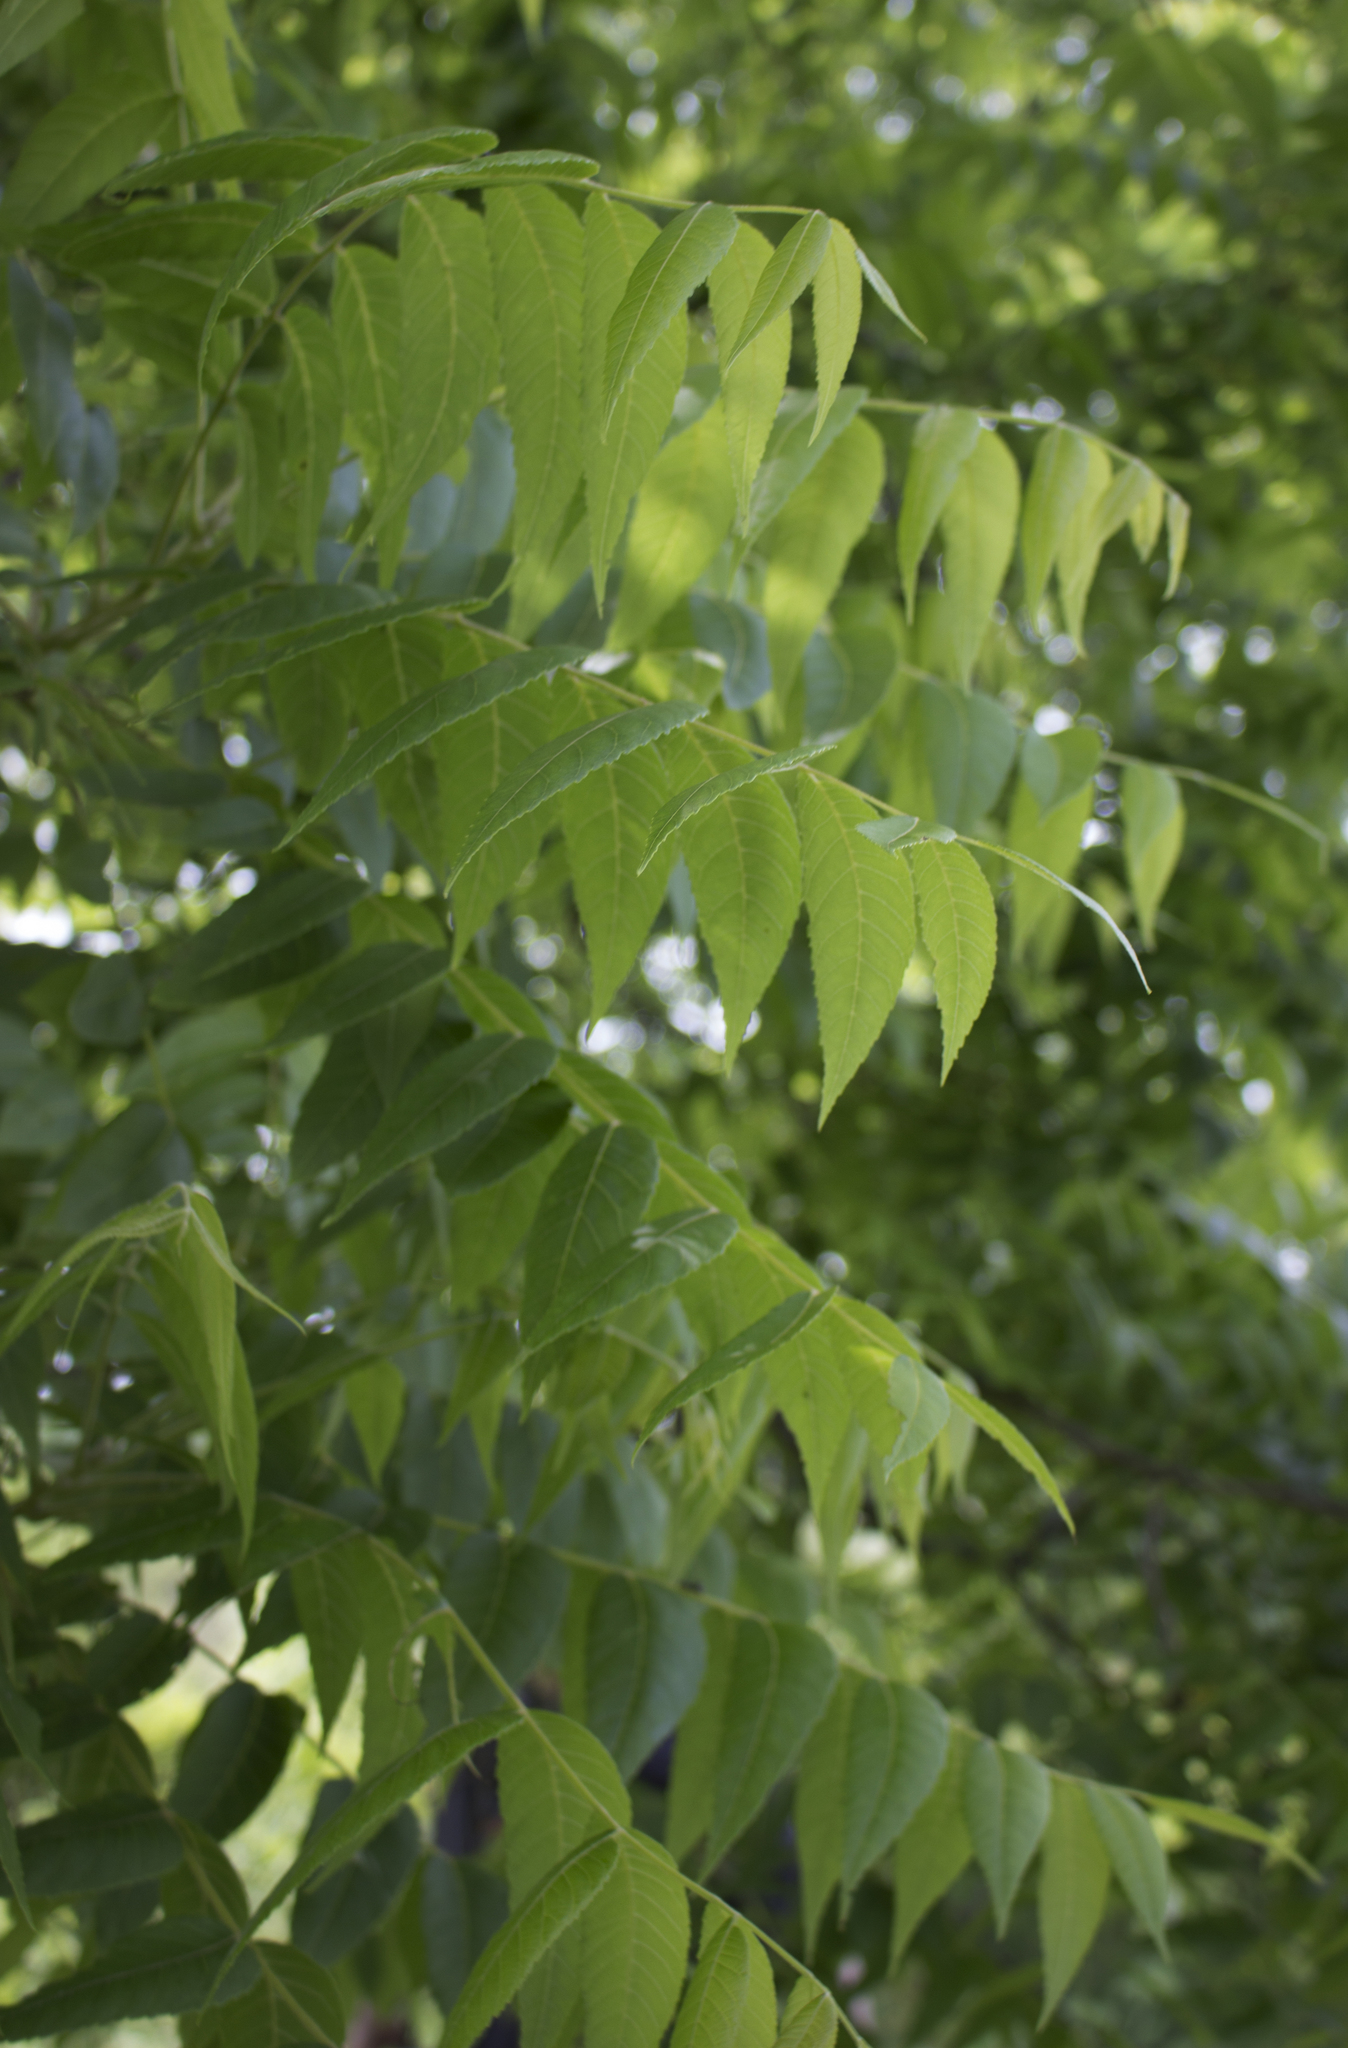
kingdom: Plantae
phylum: Tracheophyta
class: Magnoliopsida
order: Fagales
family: Juglandaceae
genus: Juglans
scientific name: Juglans nigra
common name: Black walnut
